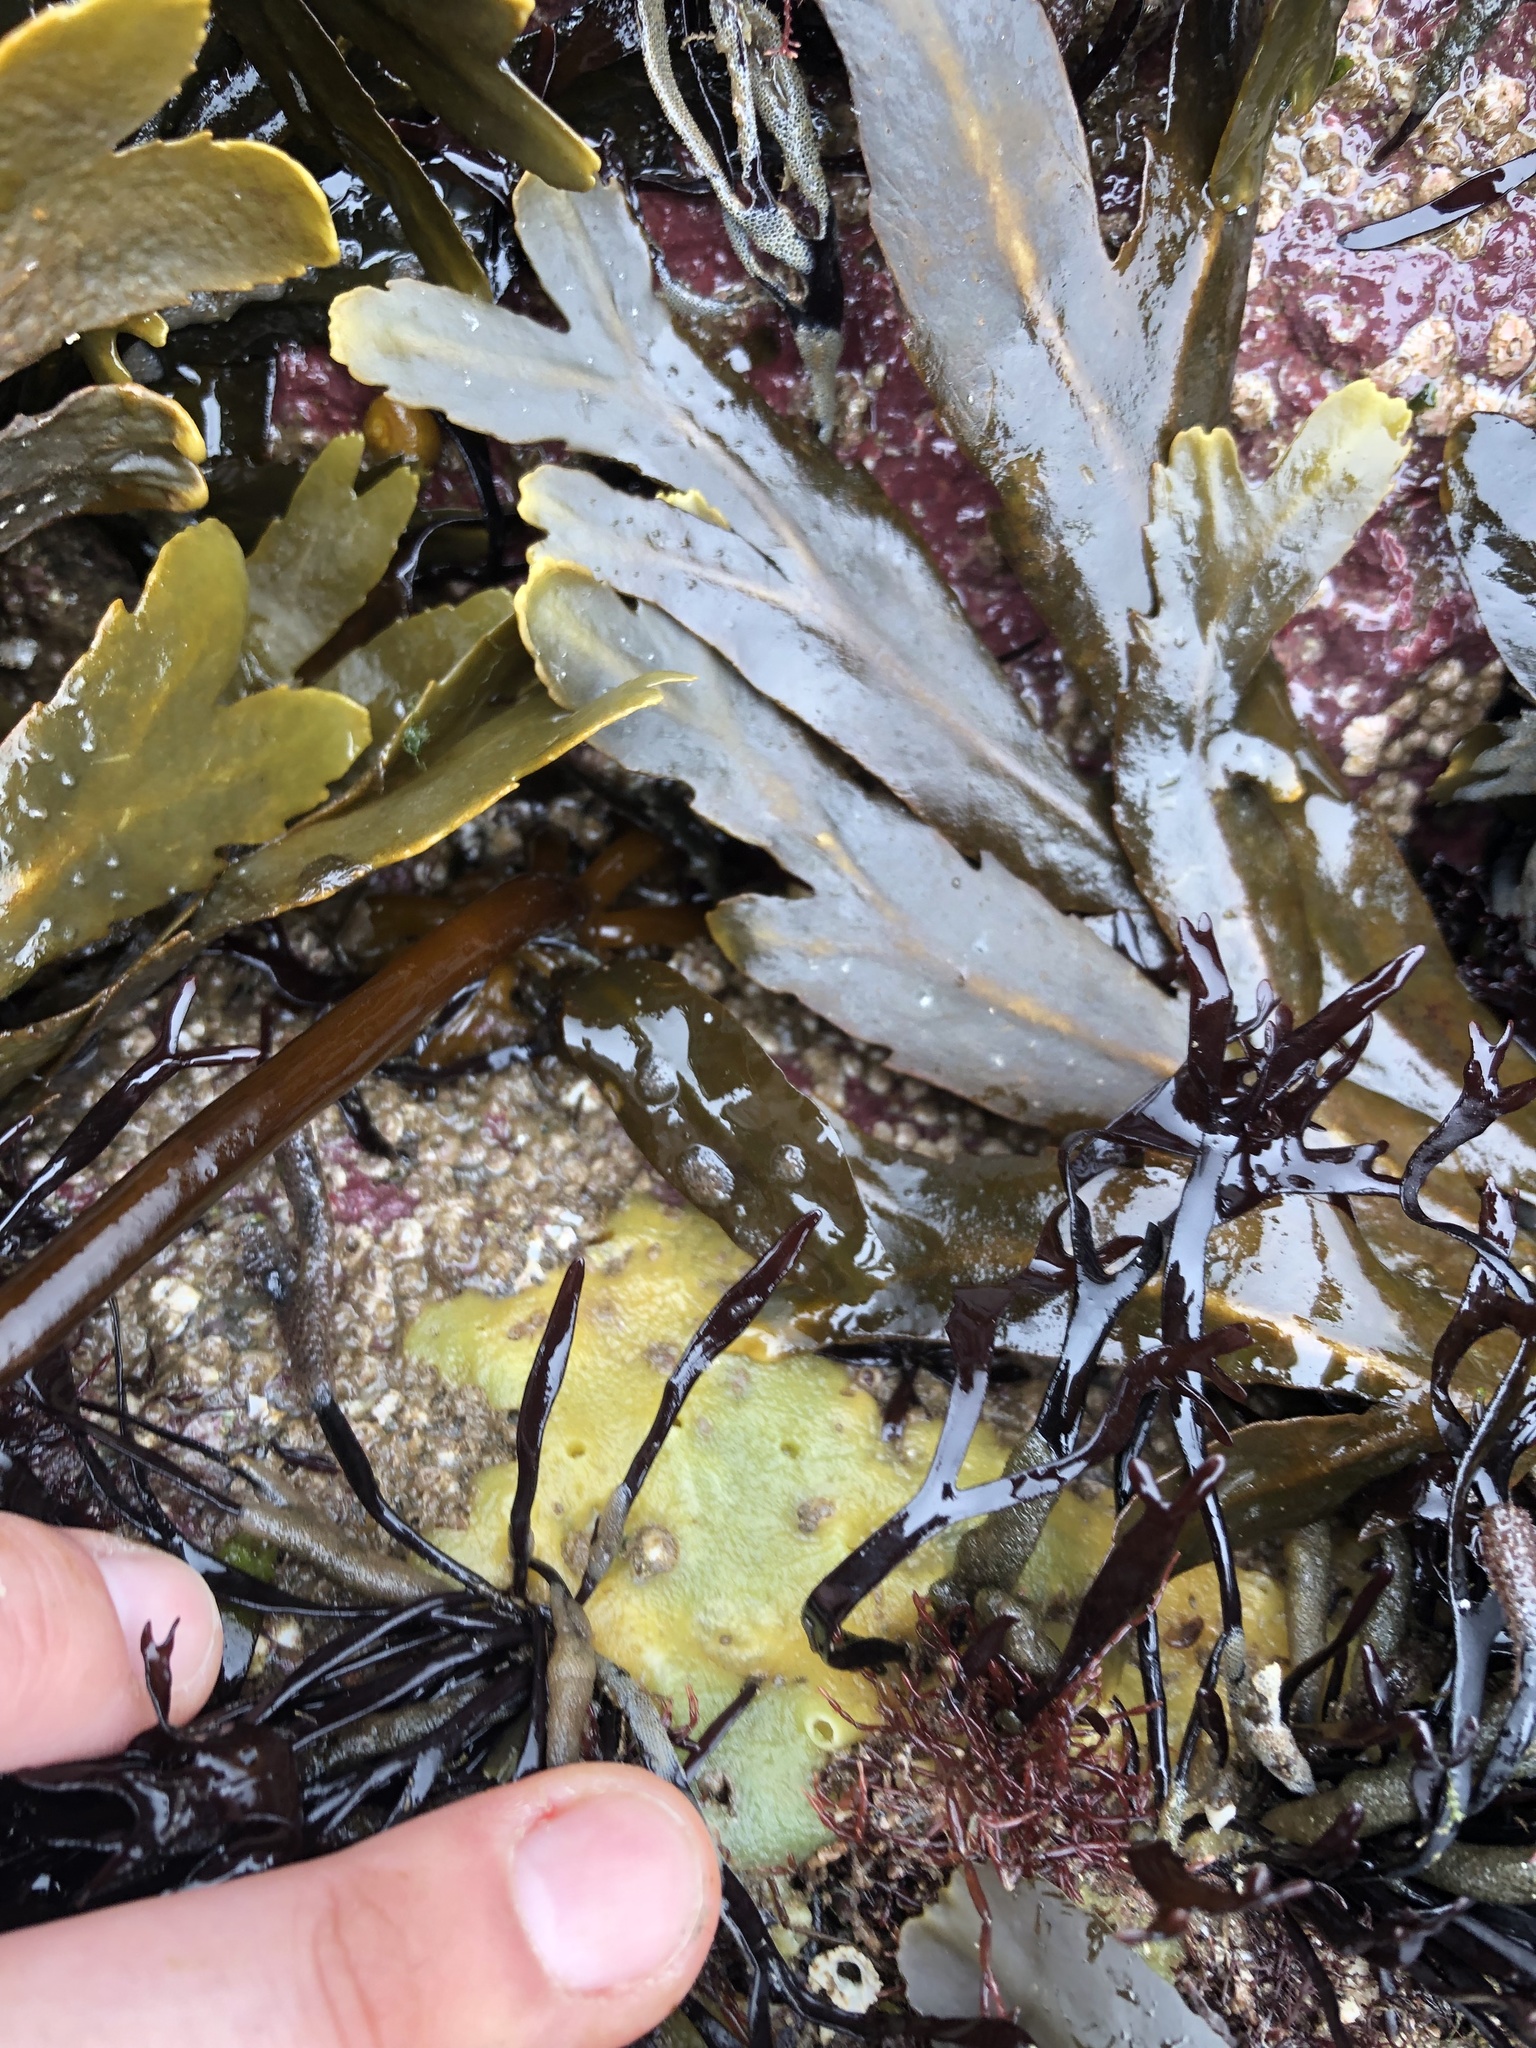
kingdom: Animalia
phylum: Porifera
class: Demospongiae
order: Suberitida
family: Halichondriidae
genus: Halichondria
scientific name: Halichondria panicea
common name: Breadcrumb sponge
